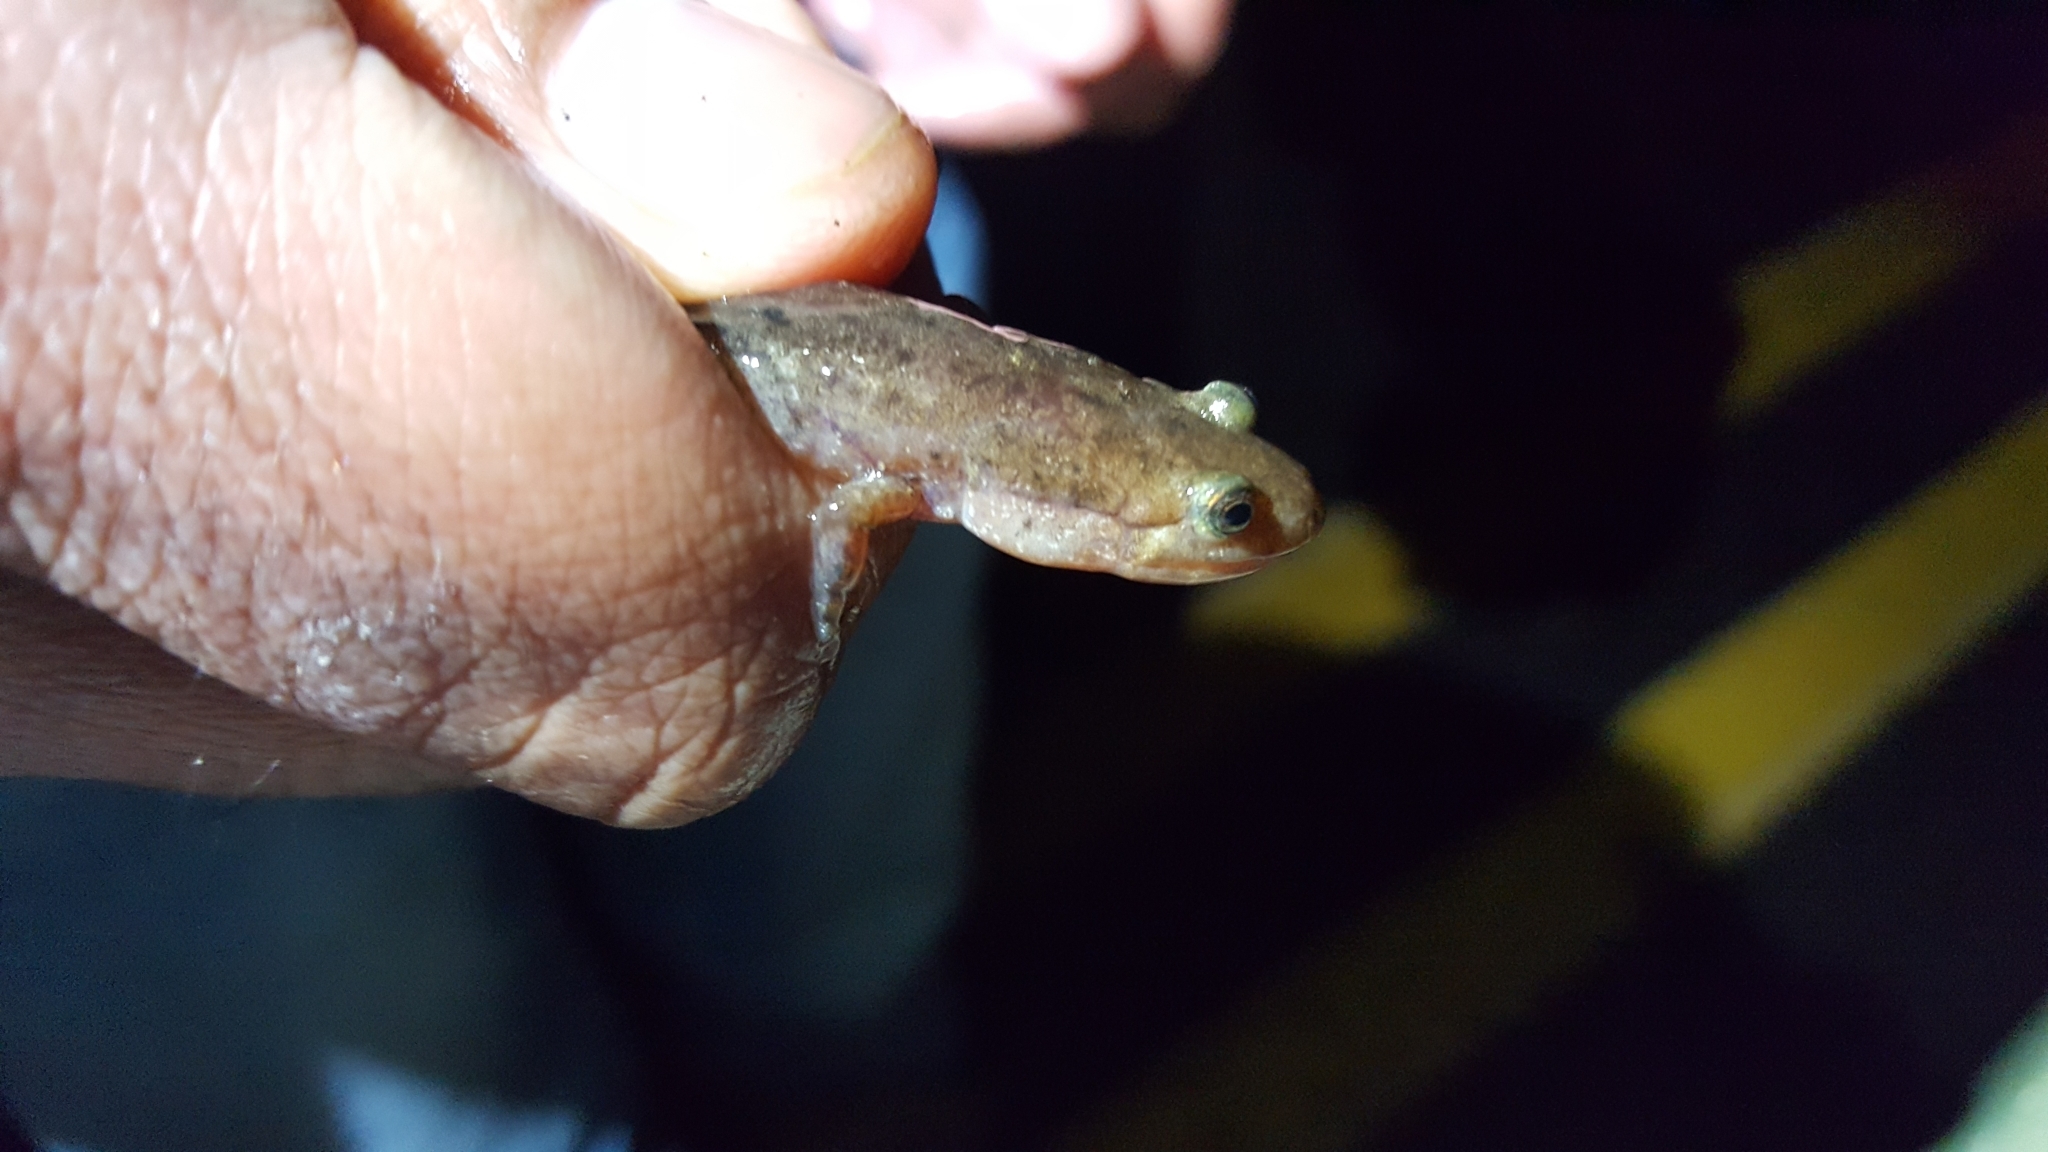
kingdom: Animalia
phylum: Chordata
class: Amphibia
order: Caudata
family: Plethodontidae
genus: Desmognathus
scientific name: Desmognathus brimleyorum
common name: Ouachita dusky salamander
